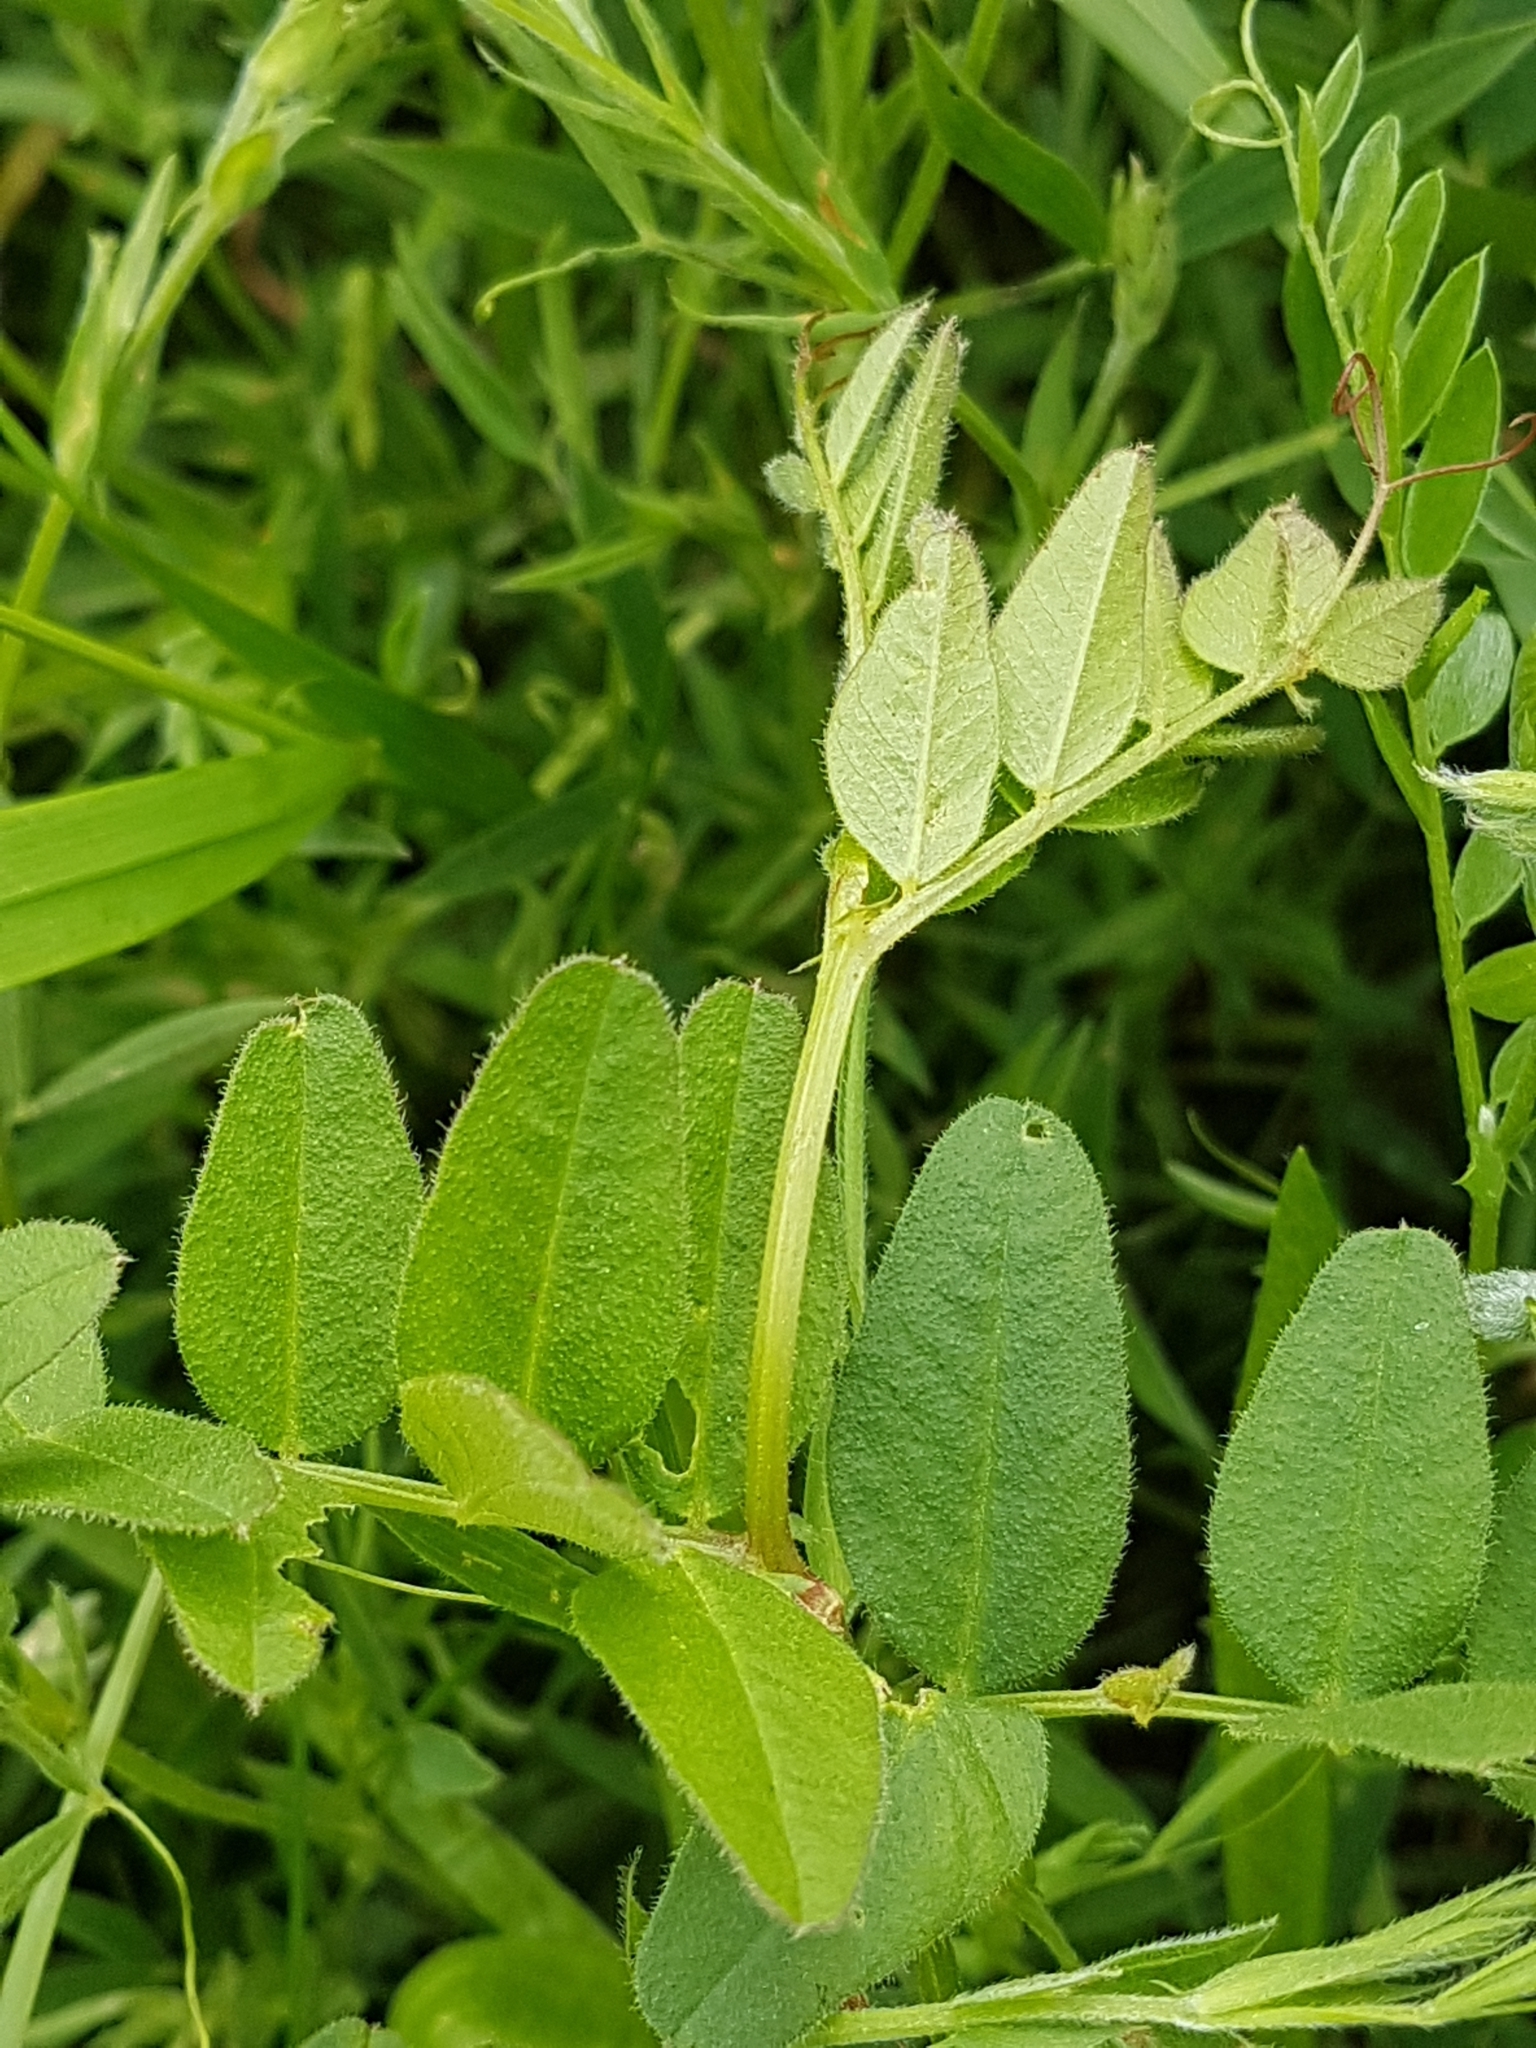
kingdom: Plantae
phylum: Tracheophyta
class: Magnoliopsida
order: Fabales
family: Fabaceae
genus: Vicia
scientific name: Vicia sepium
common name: Bush vetch
